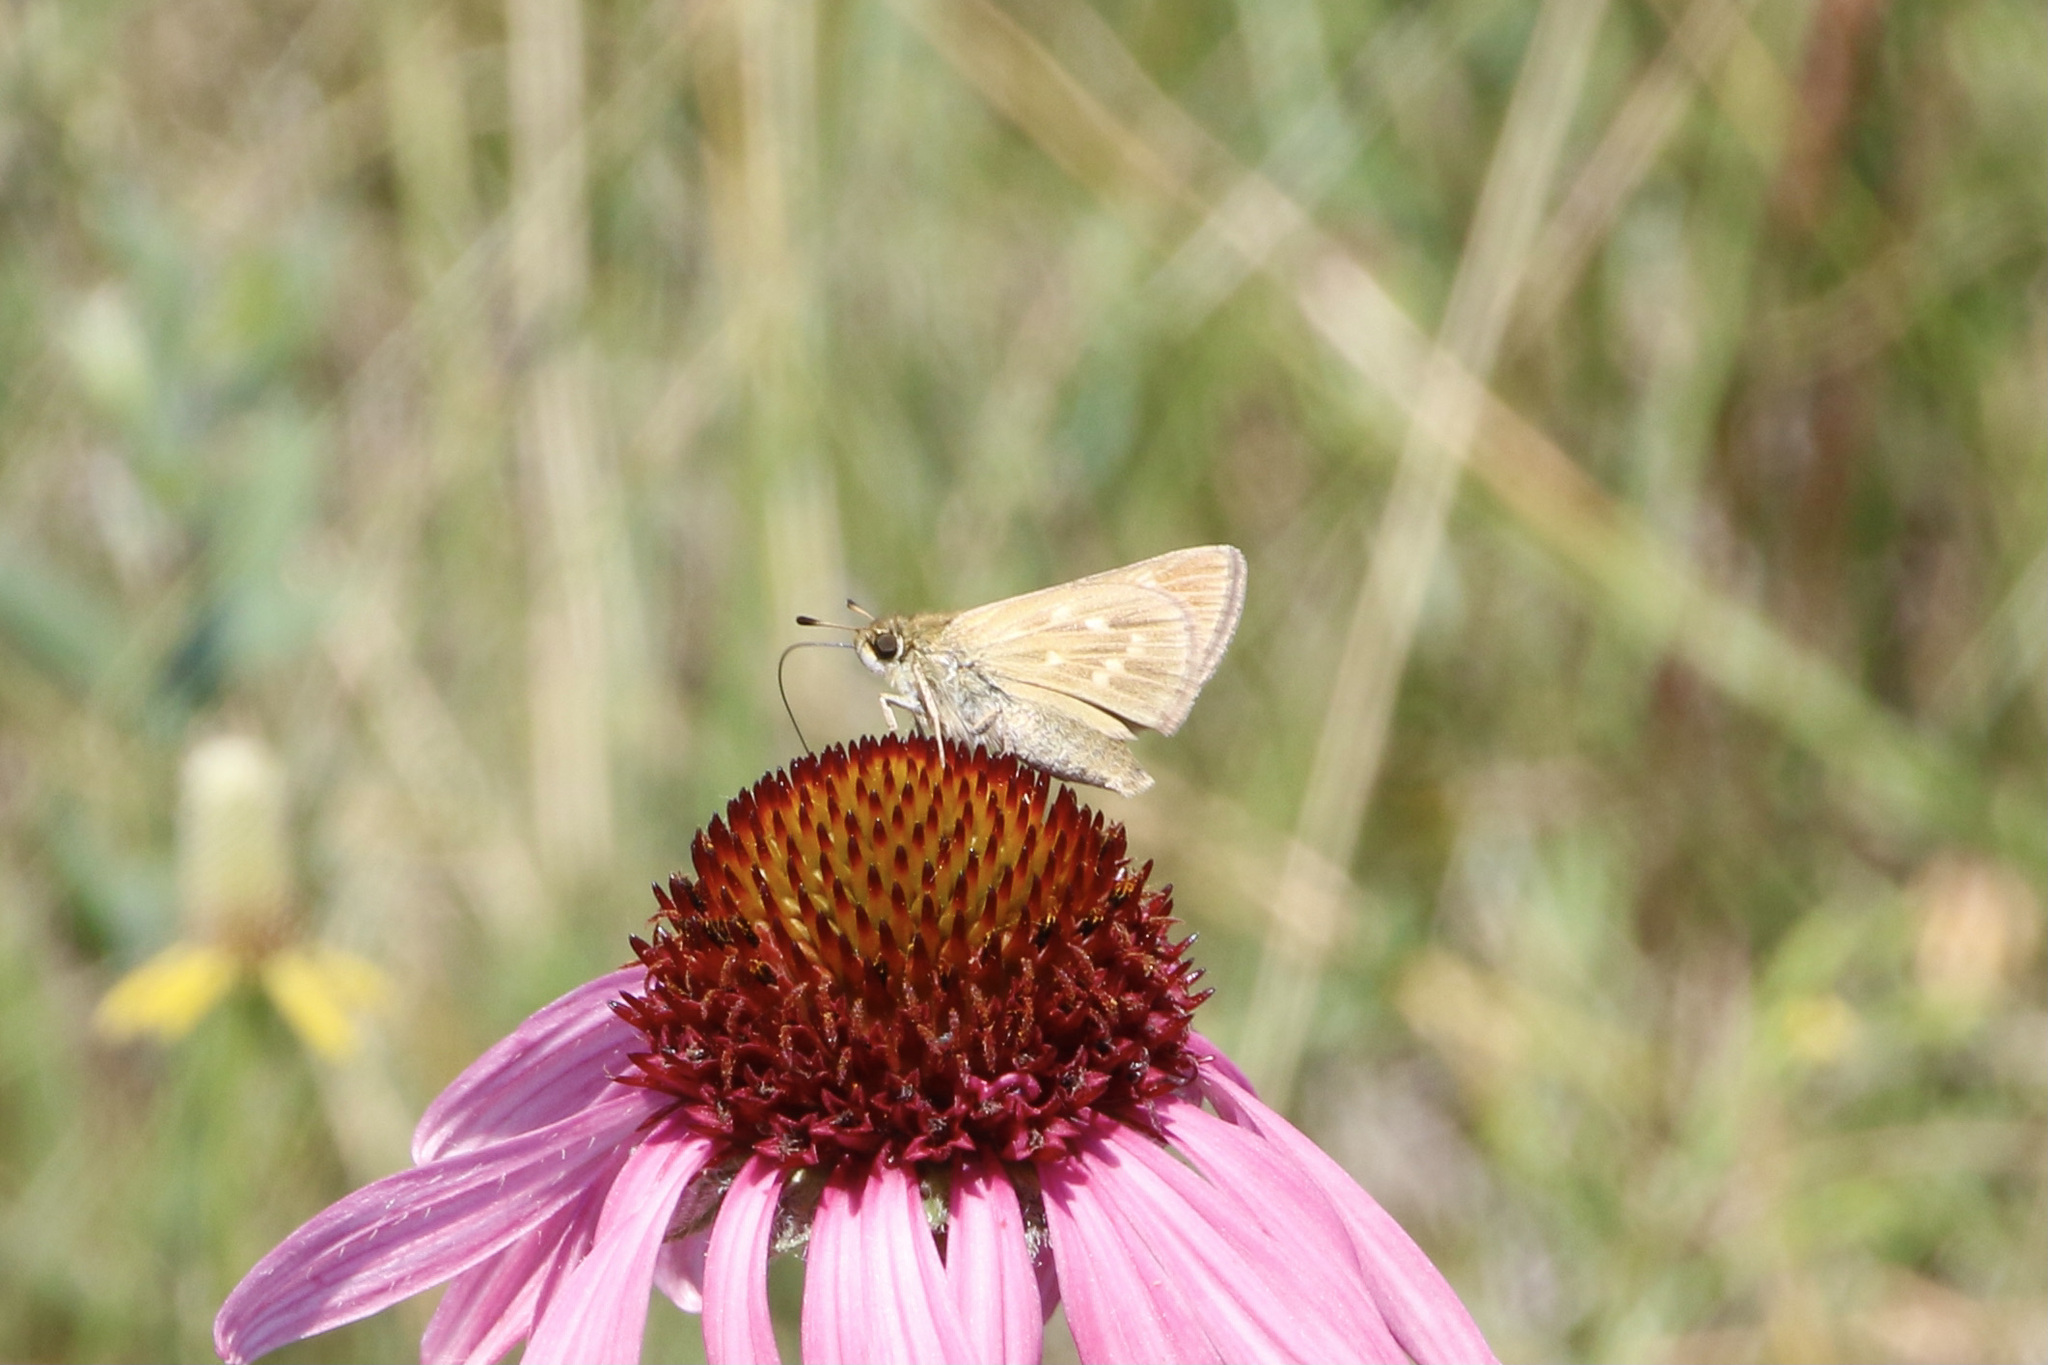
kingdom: Animalia
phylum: Arthropoda
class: Insecta
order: Lepidoptera
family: Hesperiidae
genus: Hesperia
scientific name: Hesperia dacotae
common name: Dakota skipper
